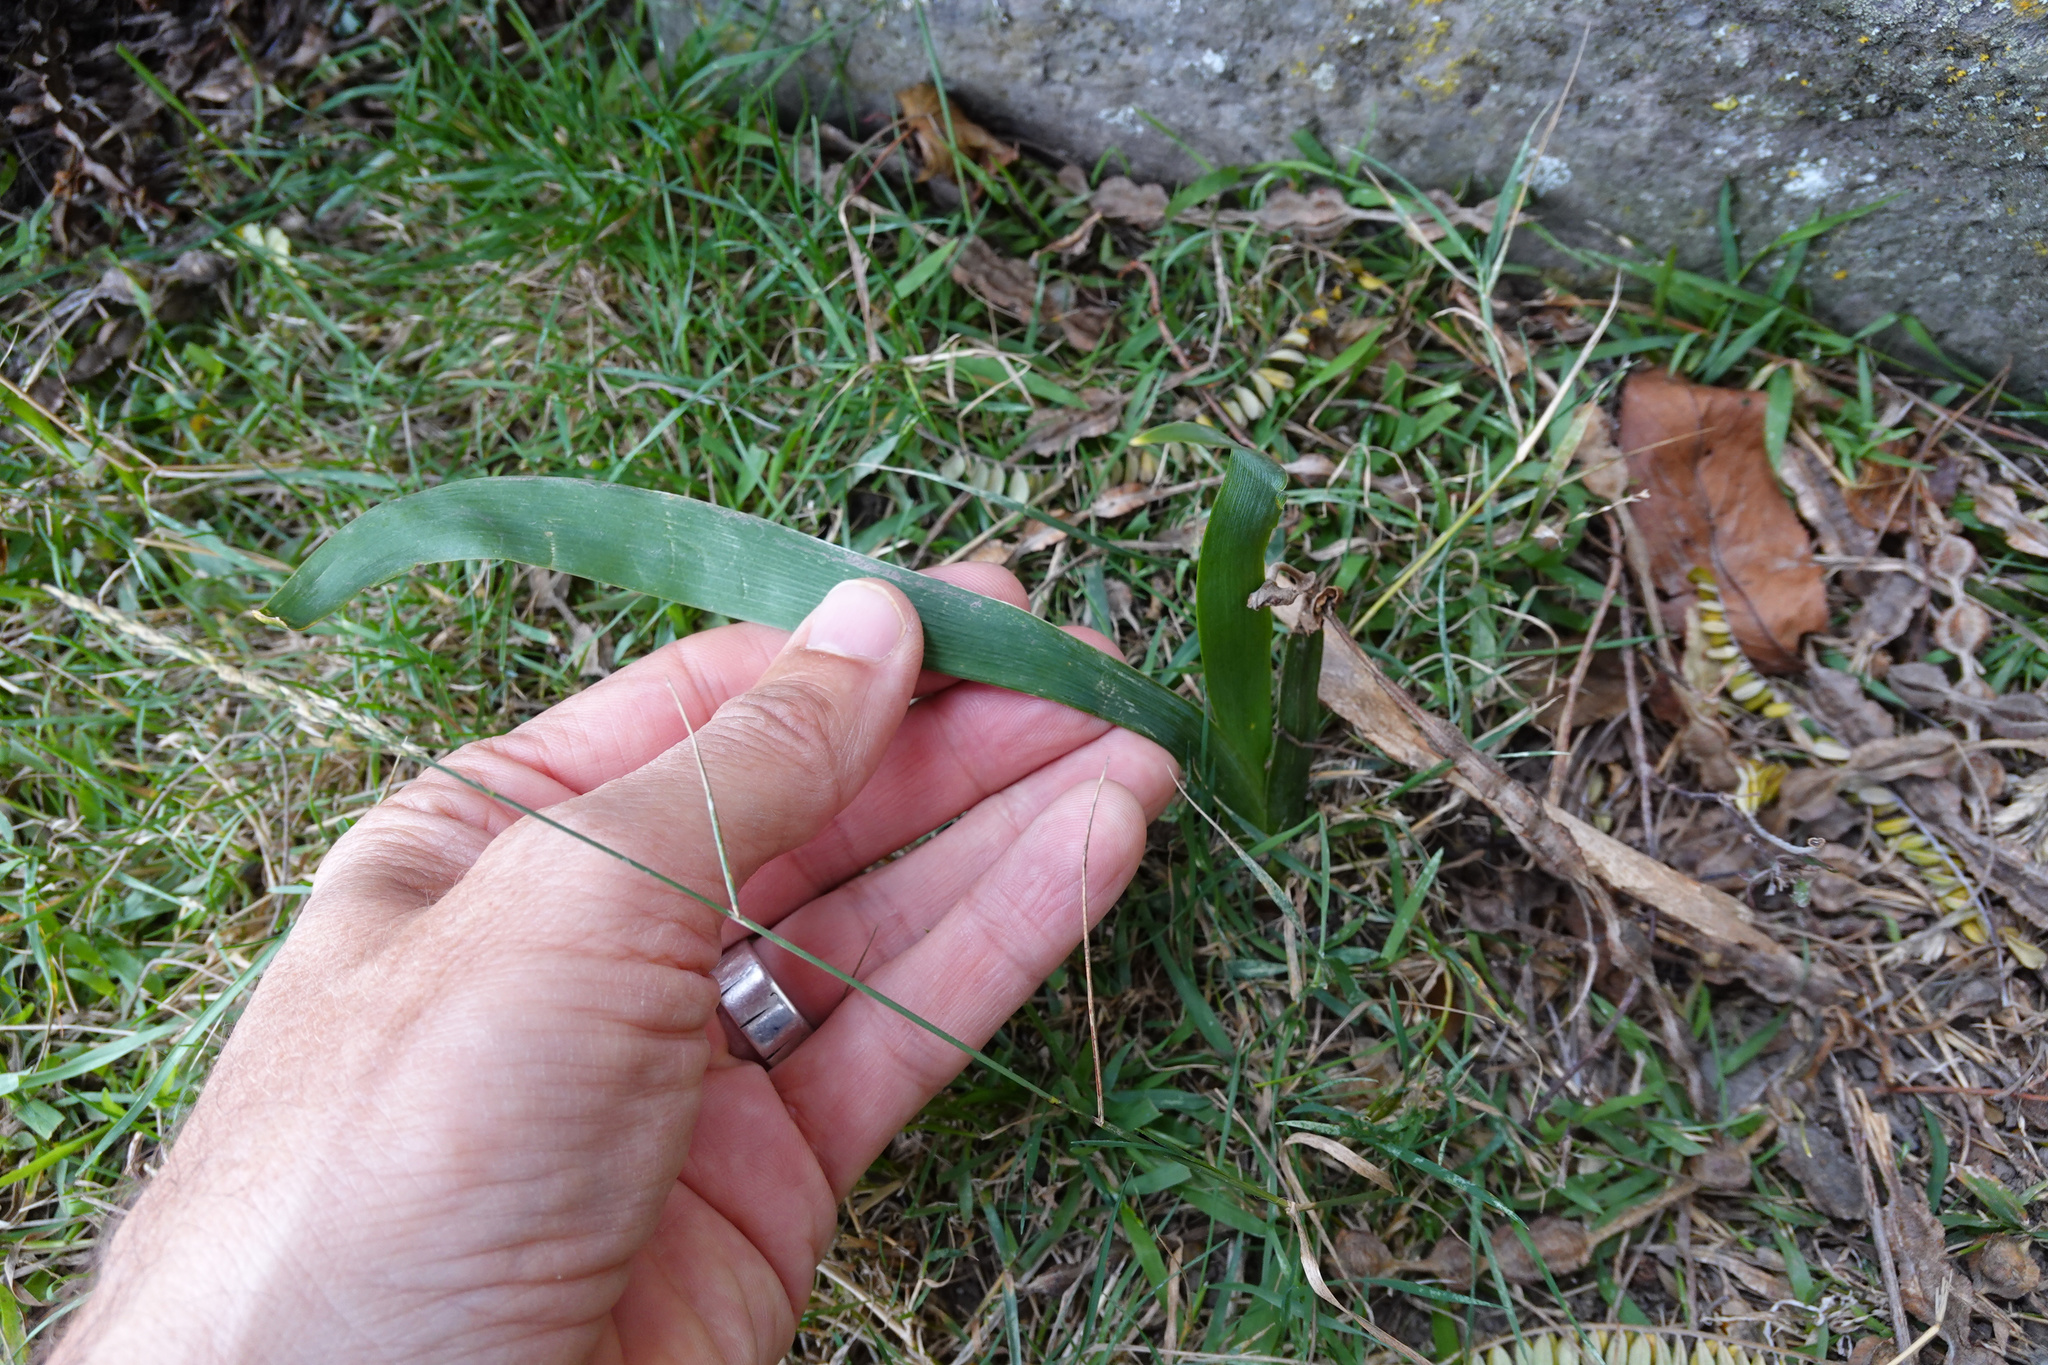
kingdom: Plantae
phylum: Tracheophyta
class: Liliopsida
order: Asparagales
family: Iridaceae
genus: Iris
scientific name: Iris foetidissima
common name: Stinking iris
